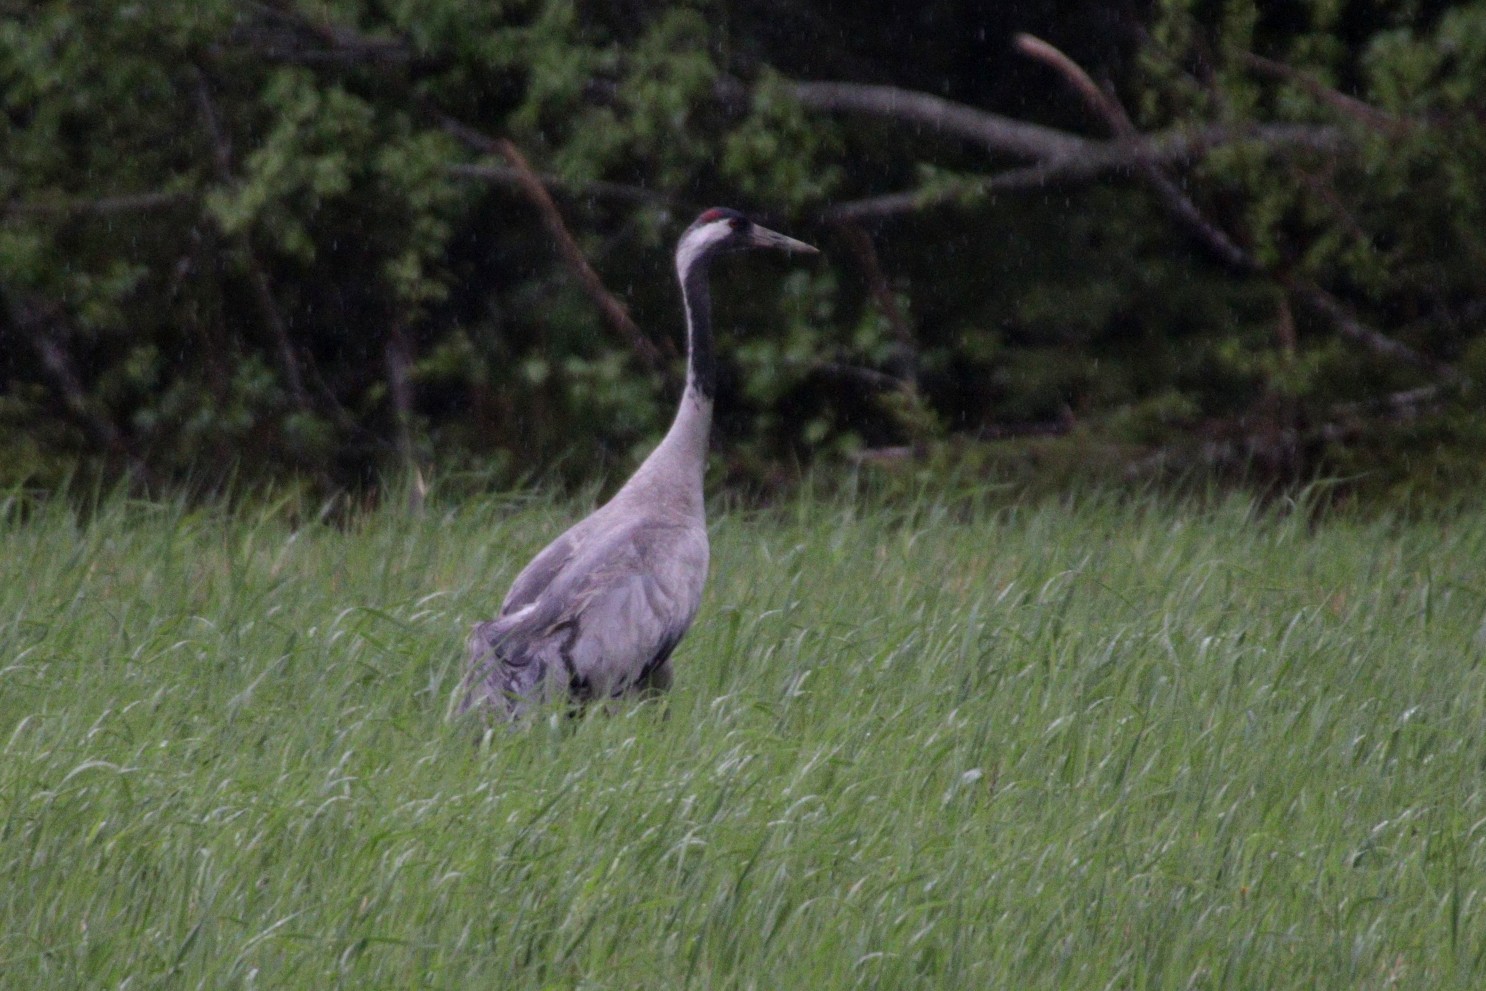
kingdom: Animalia
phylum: Chordata
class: Aves
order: Gruiformes
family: Gruidae
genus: Grus
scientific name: Grus grus
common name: Common crane
